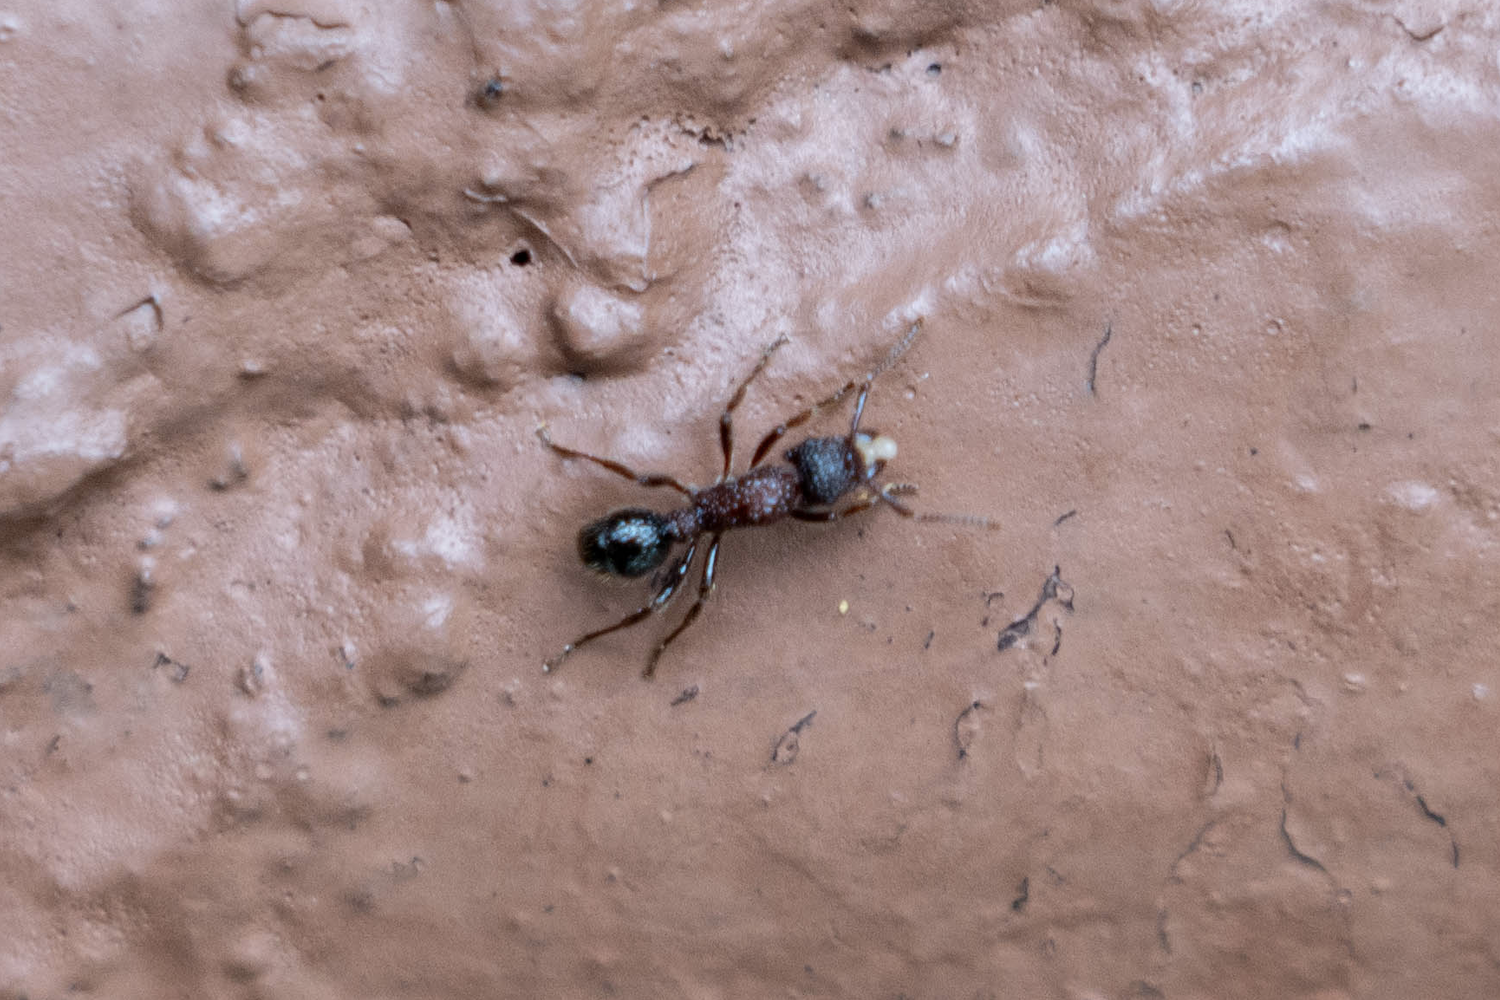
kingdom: Animalia
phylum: Arthropoda
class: Insecta
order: Hymenoptera
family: Formicidae
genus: Stictoponera
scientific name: Stictoponera bicolor
